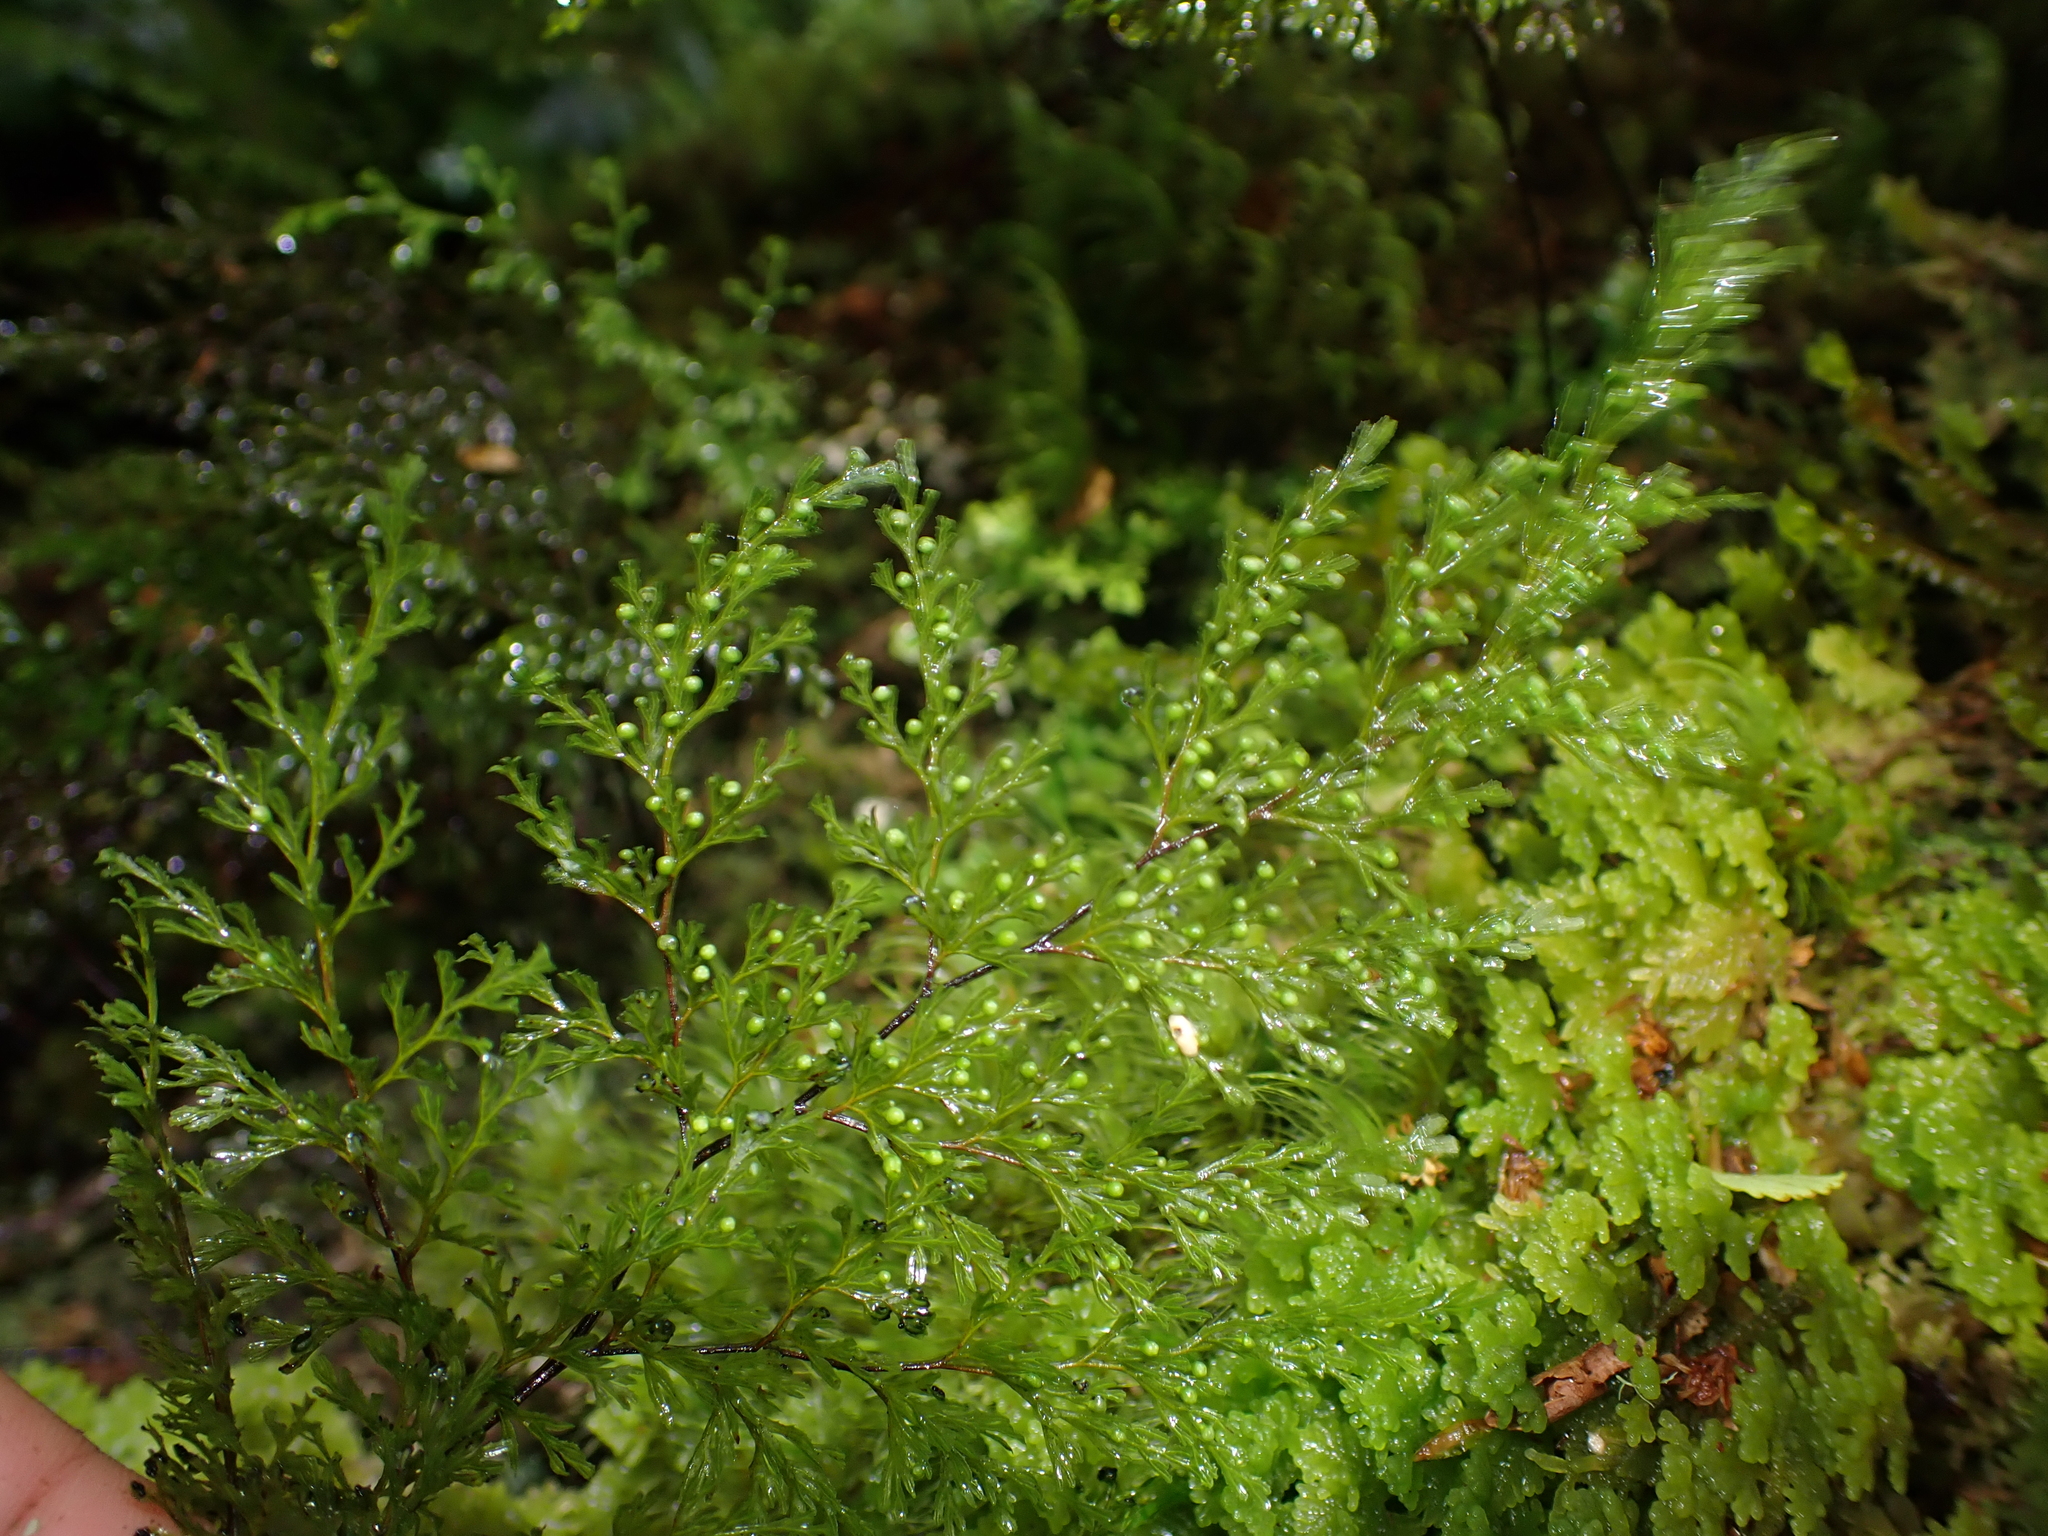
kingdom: Plantae
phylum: Tracheophyta
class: Polypodiopsida
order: Hymenophyllales
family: Hymenophyllaceae
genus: Hymenophyllum
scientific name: Hymenophyllum bivalve
